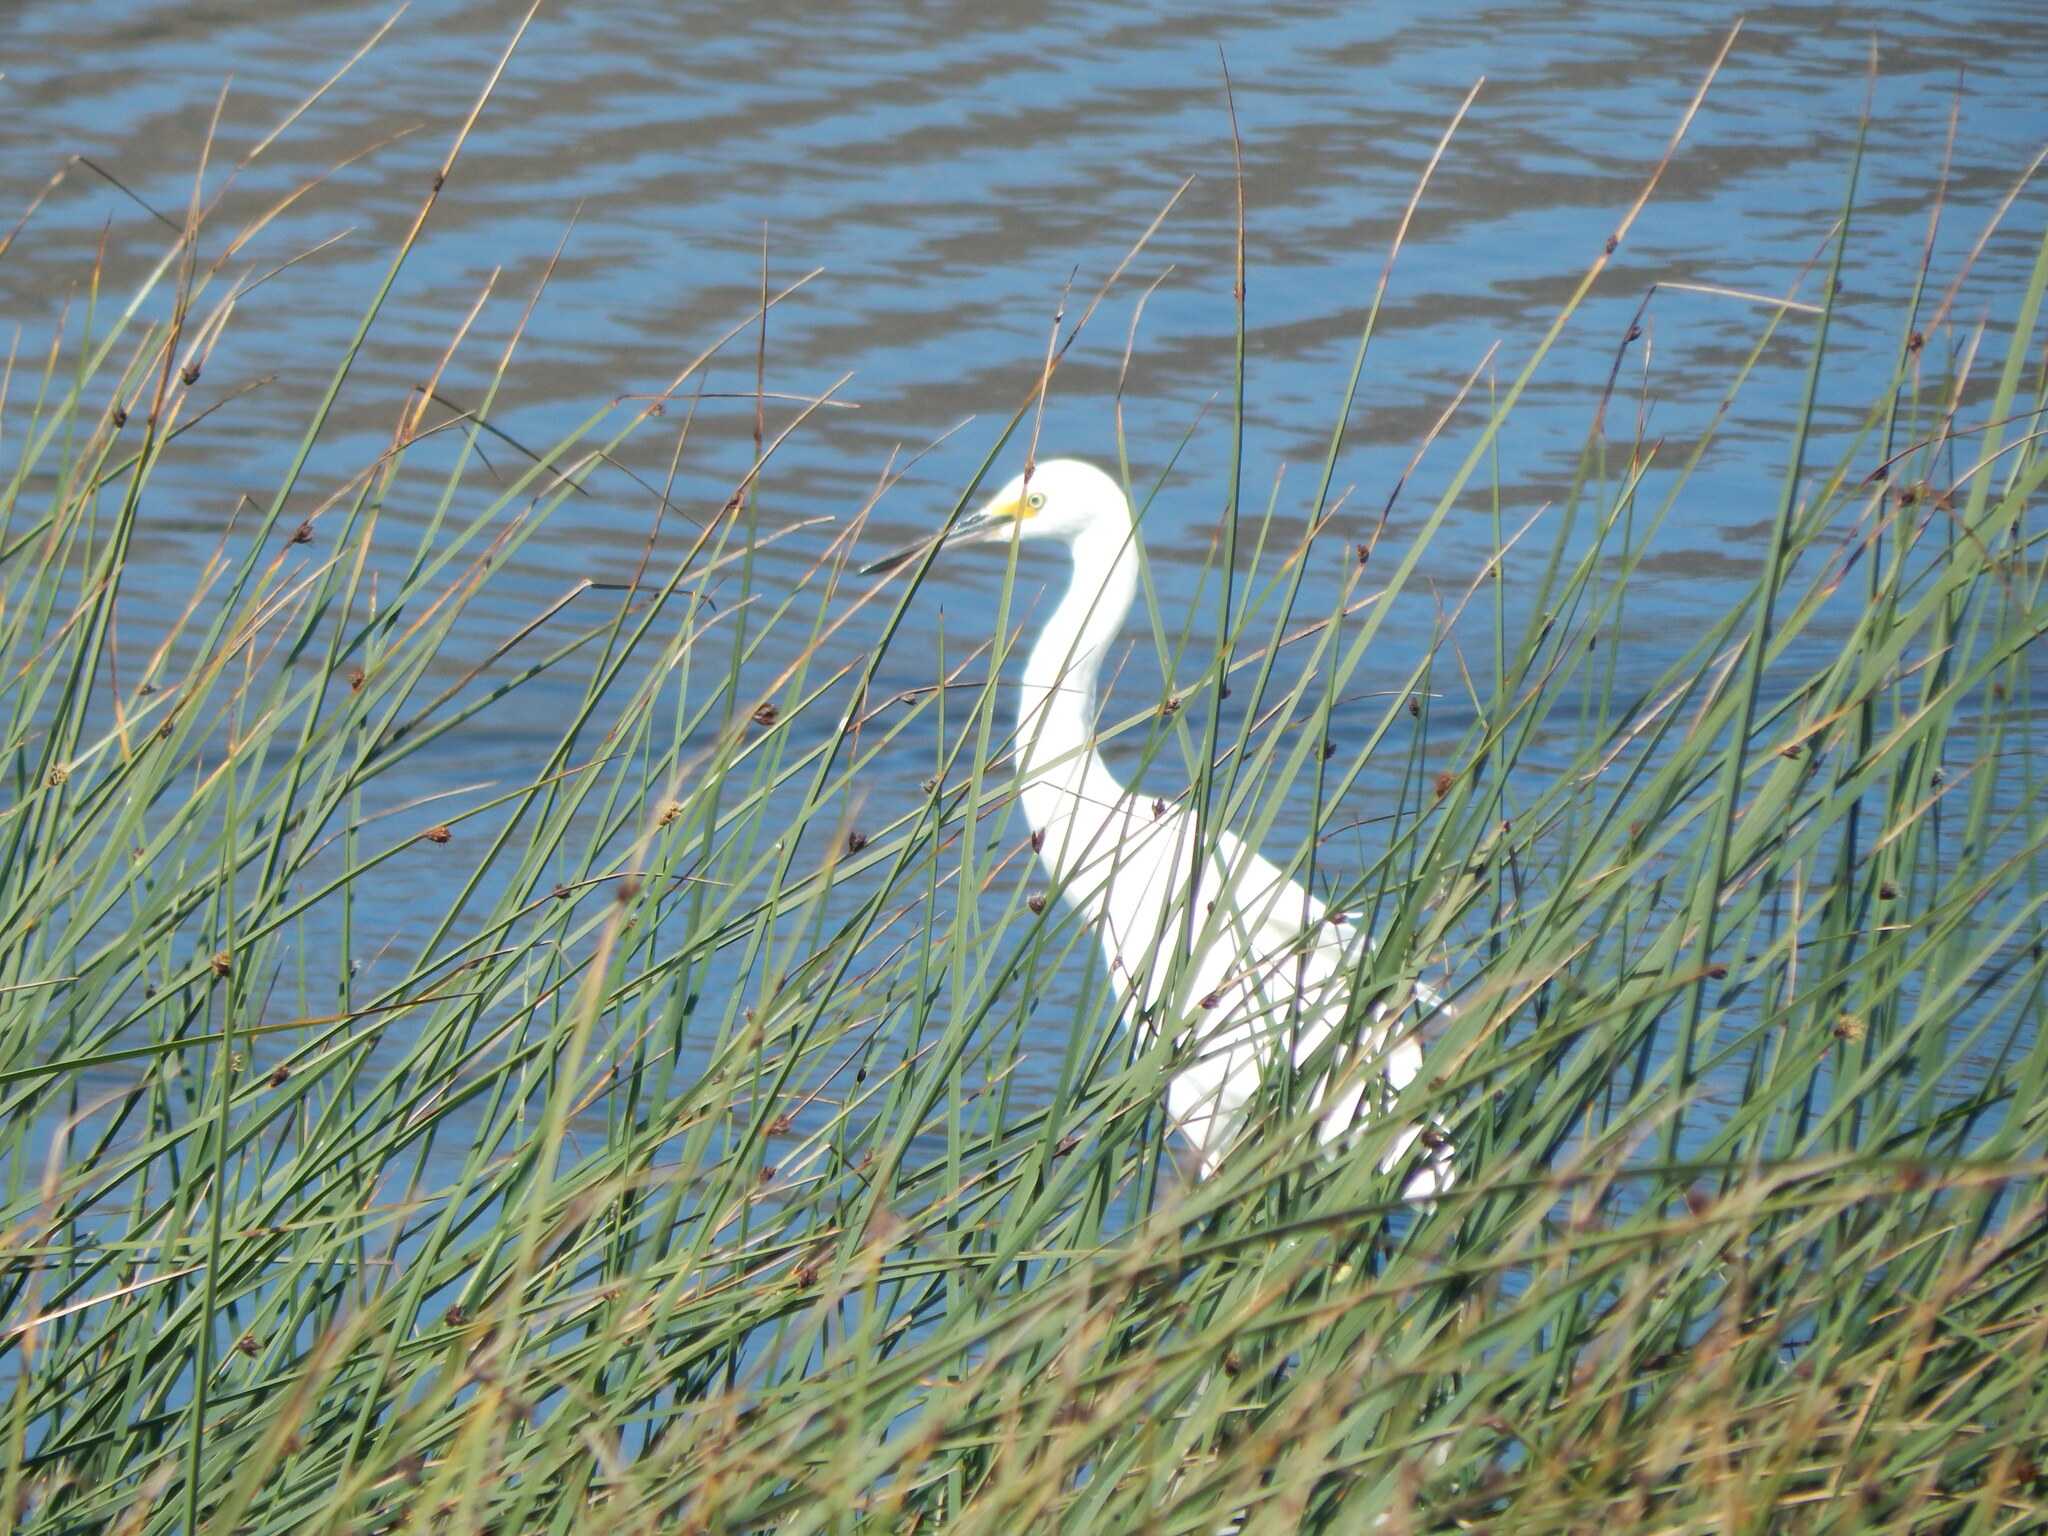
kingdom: Animalia
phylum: Chordata
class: Aves
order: Pelecaniformes
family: Ardeidae
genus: Egretta
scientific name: Egretta thula
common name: Snowy egret
